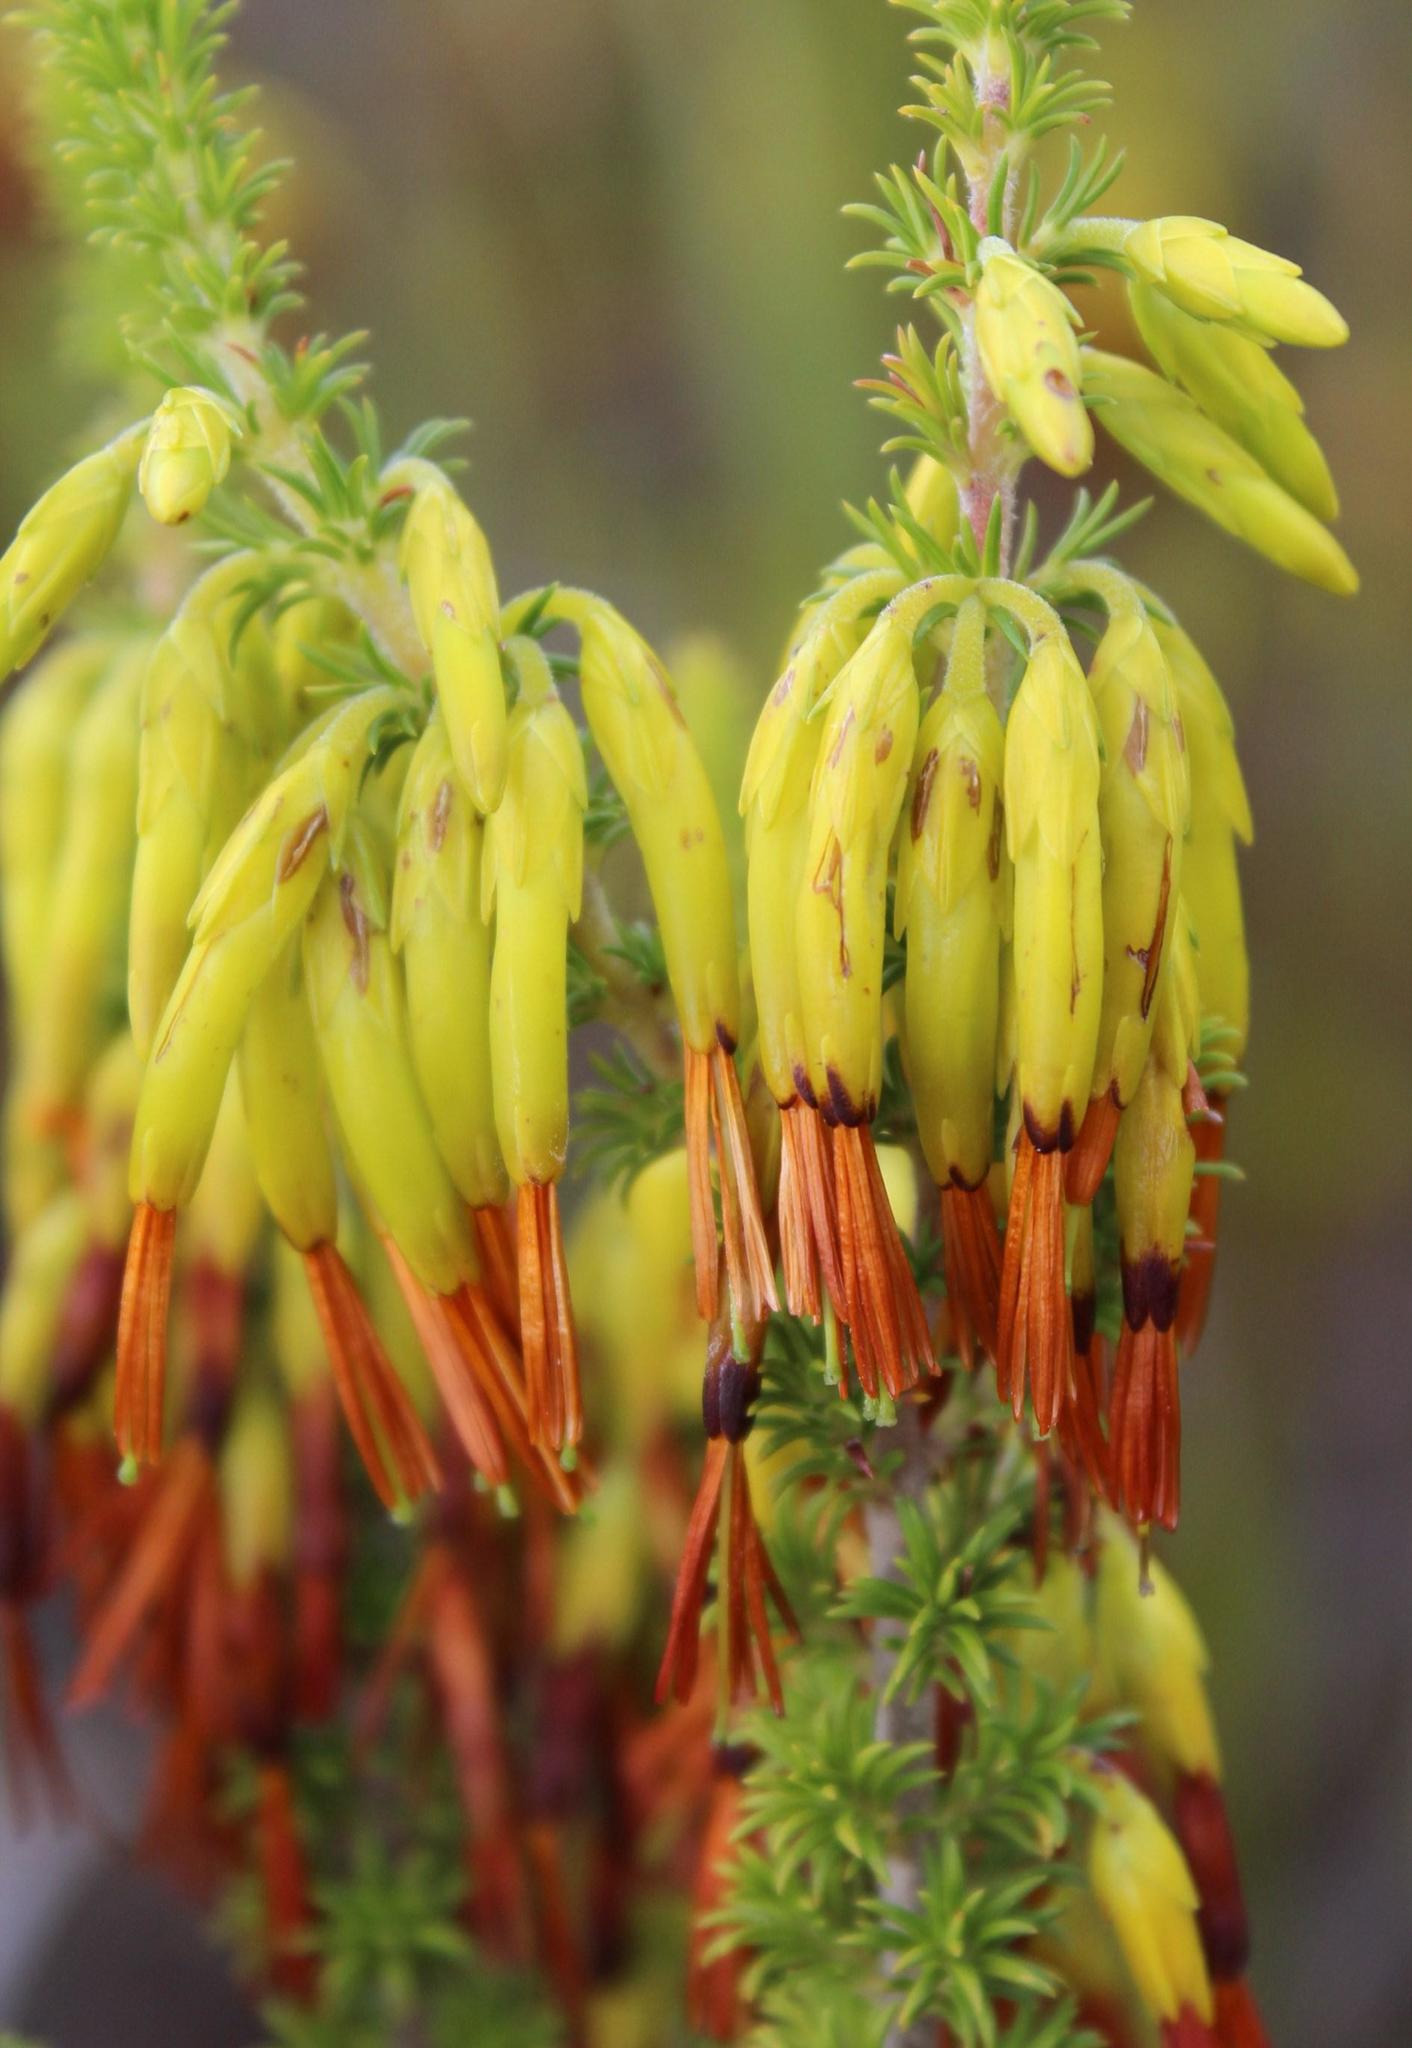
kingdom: Plantae
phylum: Tracheophyta
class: Magnoliopsida
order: Ericales
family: Ericaceae
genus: Erica
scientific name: Erica coccinea
